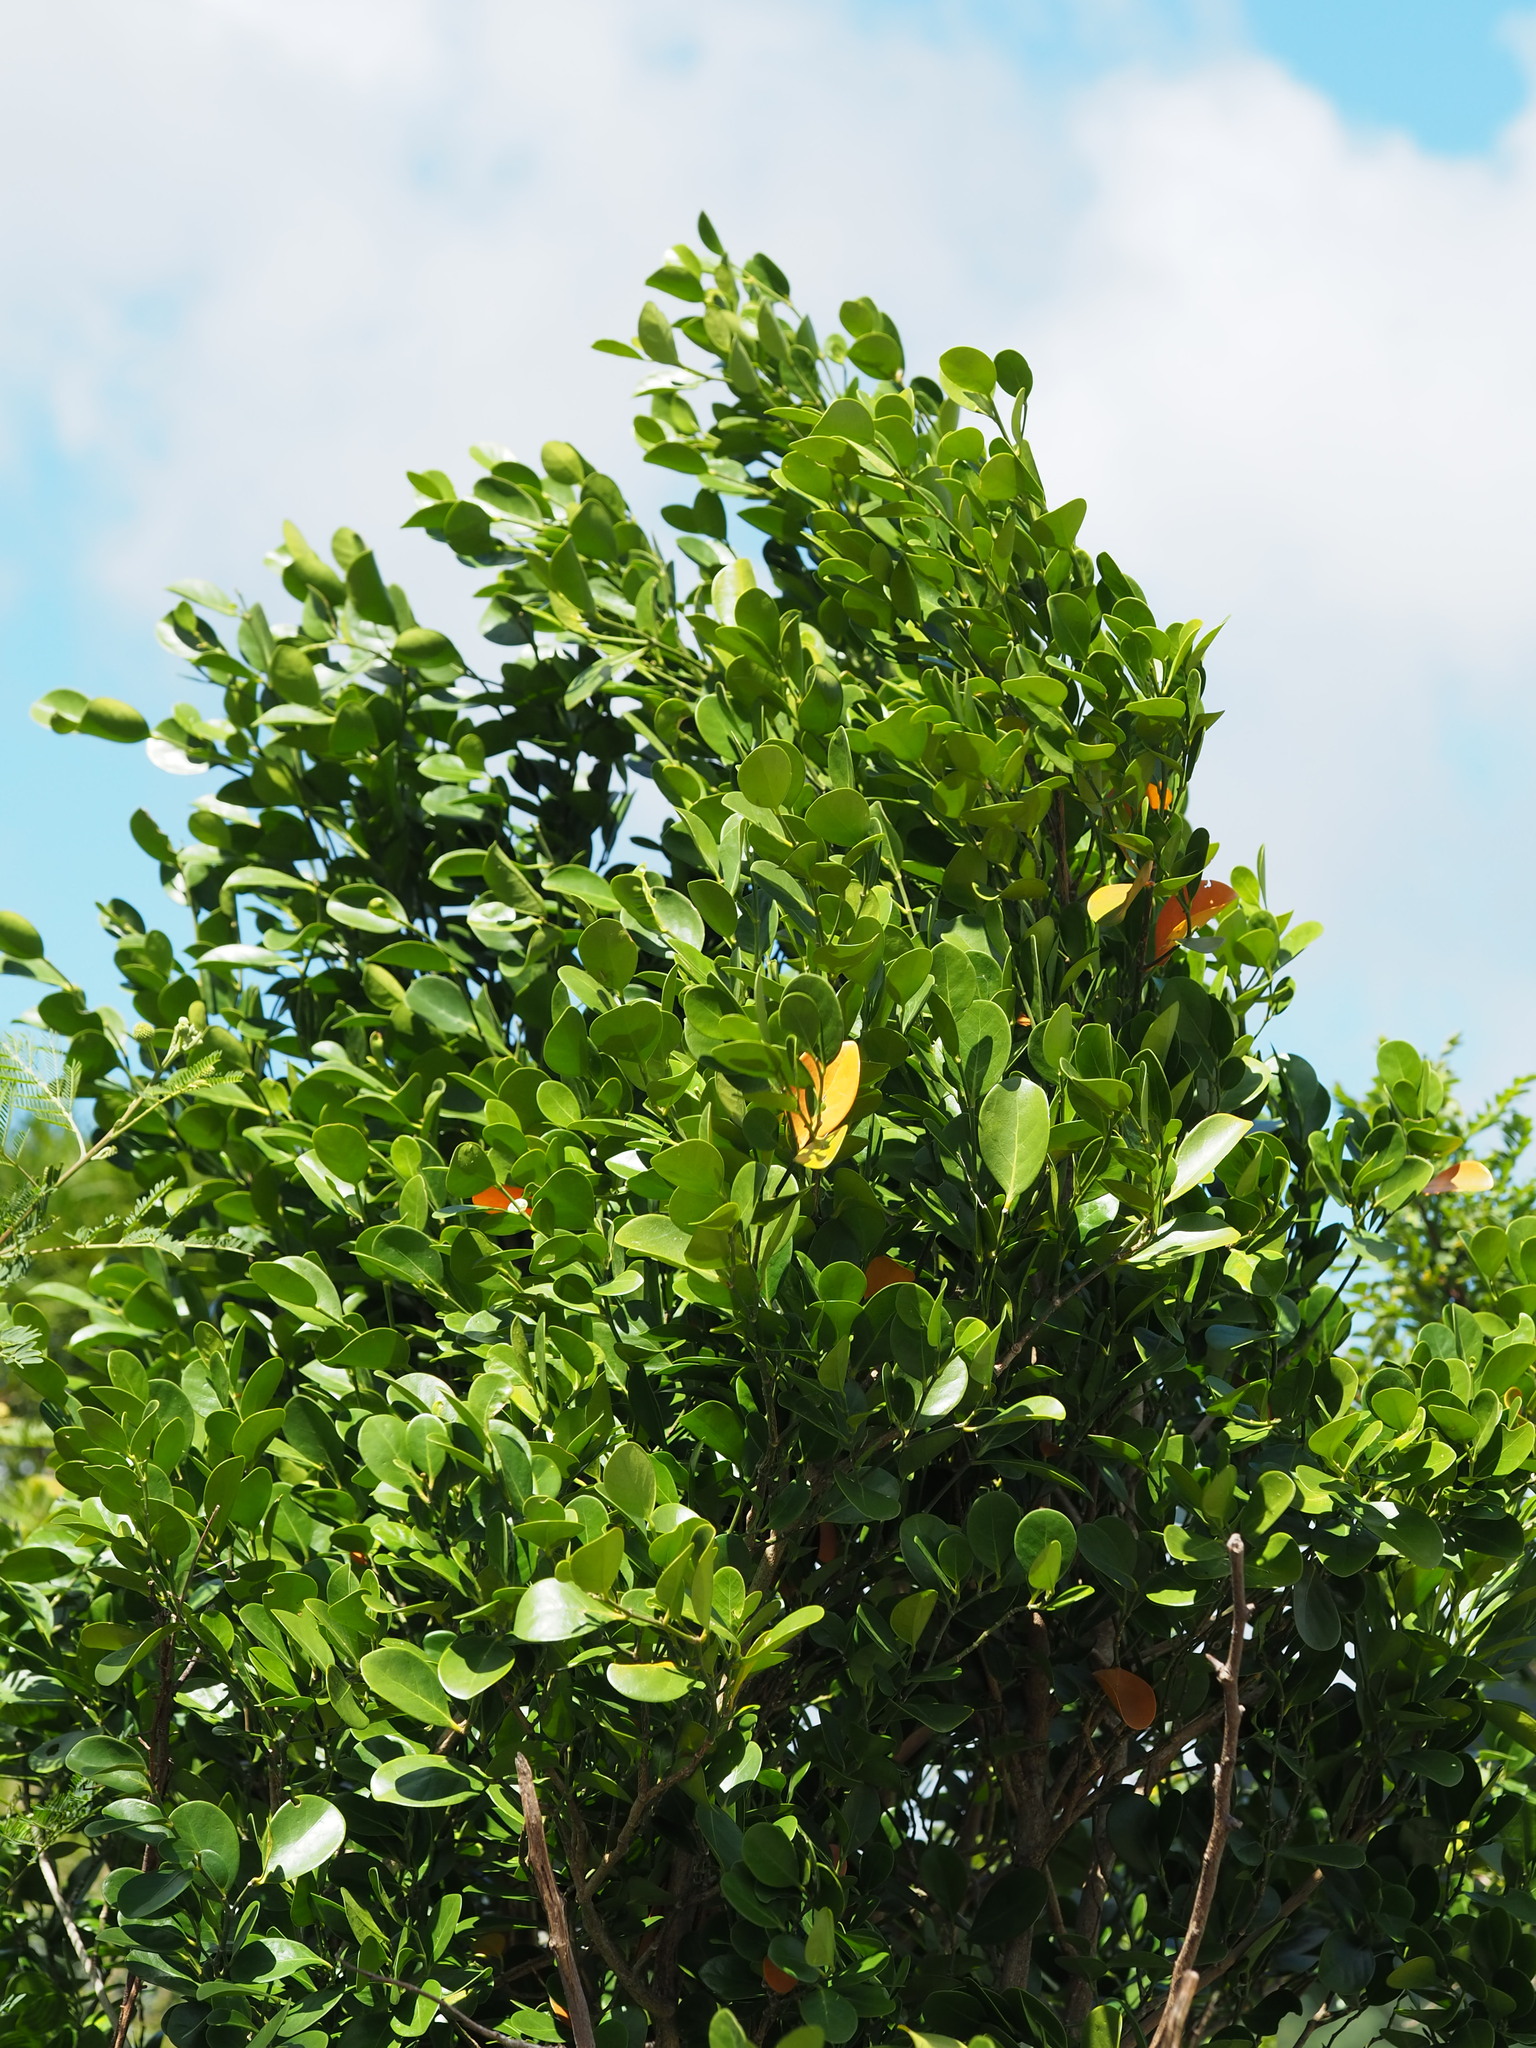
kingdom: Plantae
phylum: Tracheophyta
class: Magnoliopsida
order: Malpighiales
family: Euphorbiaceae
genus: Suregada
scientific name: Suregada aequorea
